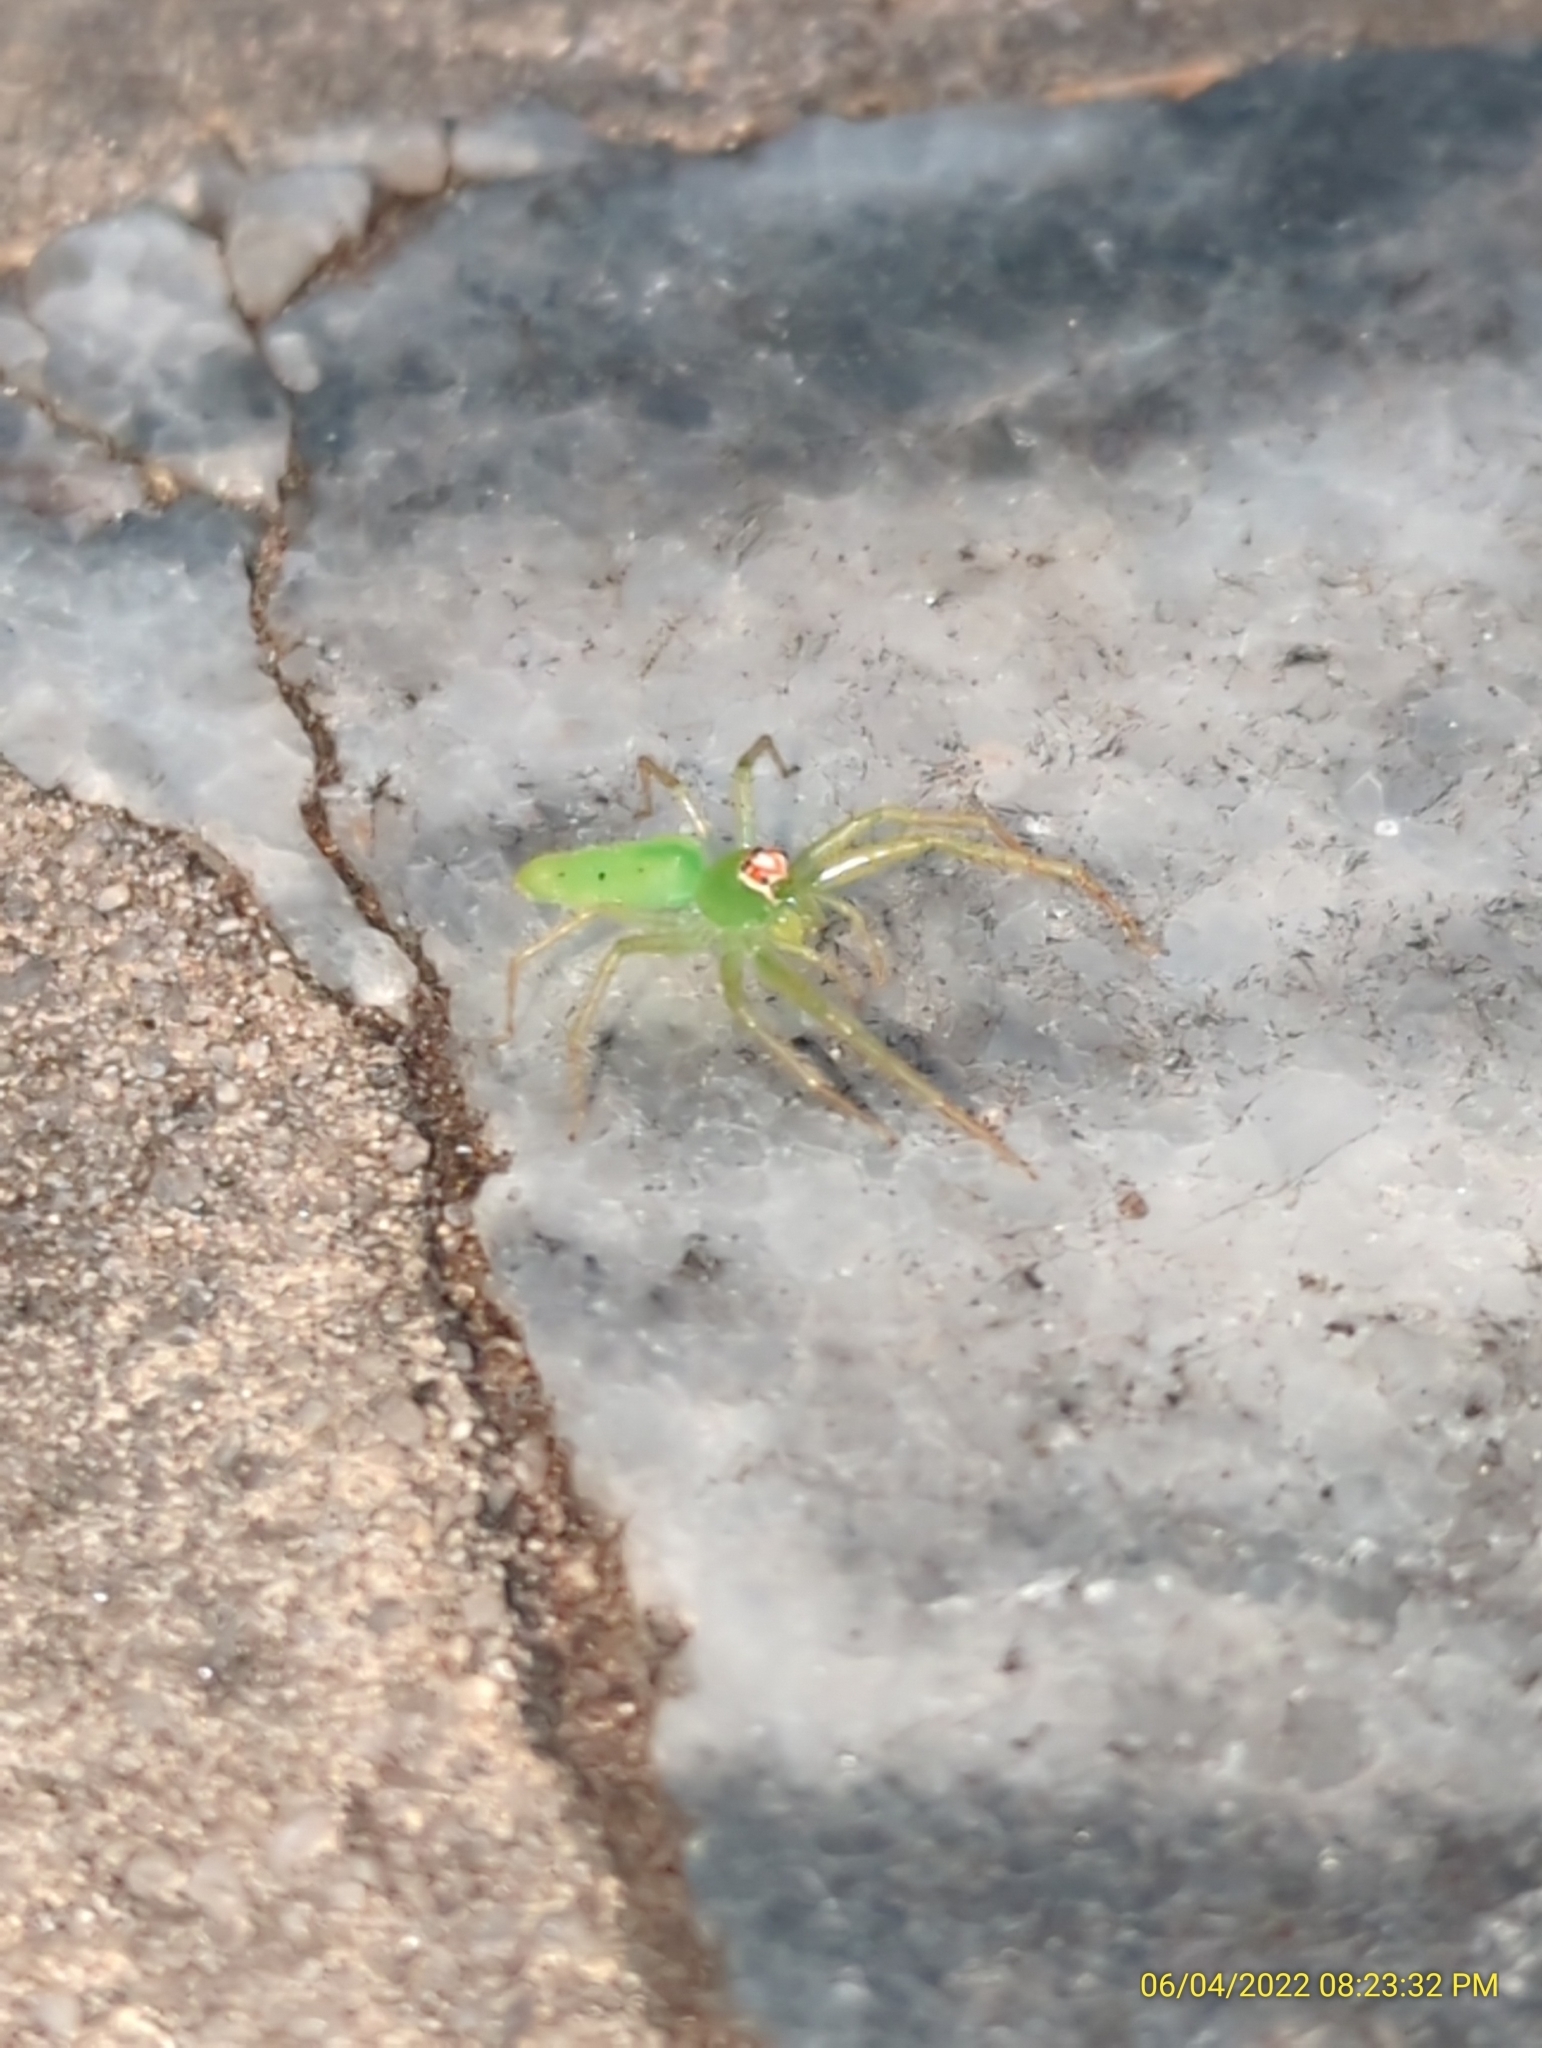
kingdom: Animalia
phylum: Arthropoda
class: Arachnida
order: Araneae
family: Salticidae
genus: Lyssomanes
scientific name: Lyssomanes viridis
